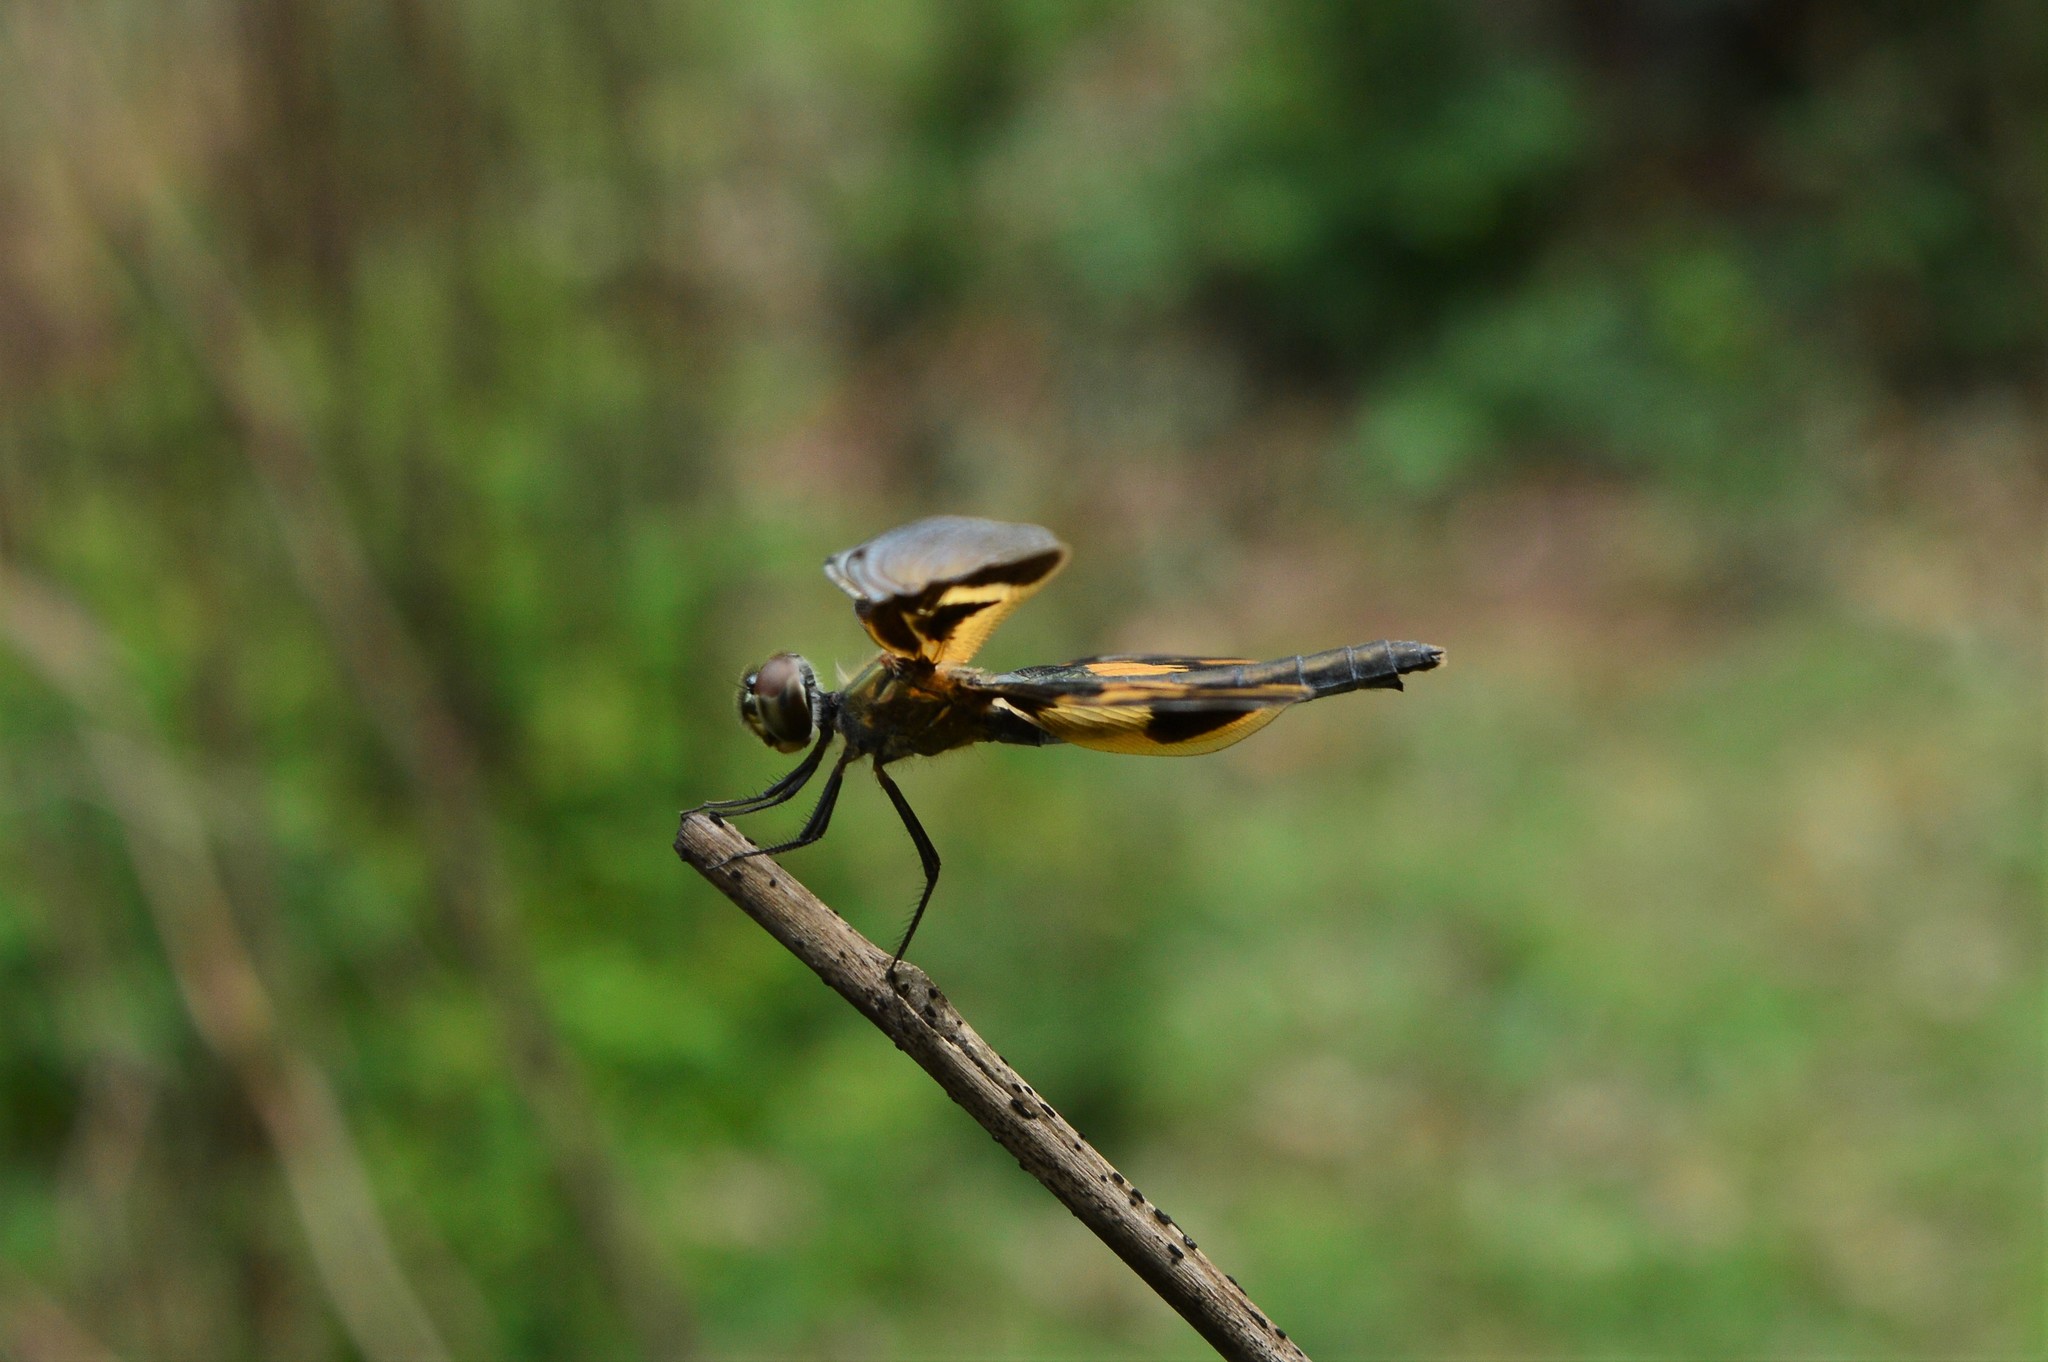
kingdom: Animalia
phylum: Arthropoda
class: Insecta
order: Odonata
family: Libellulidae
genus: Rhyothemis
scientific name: Rhyothemis variegata
